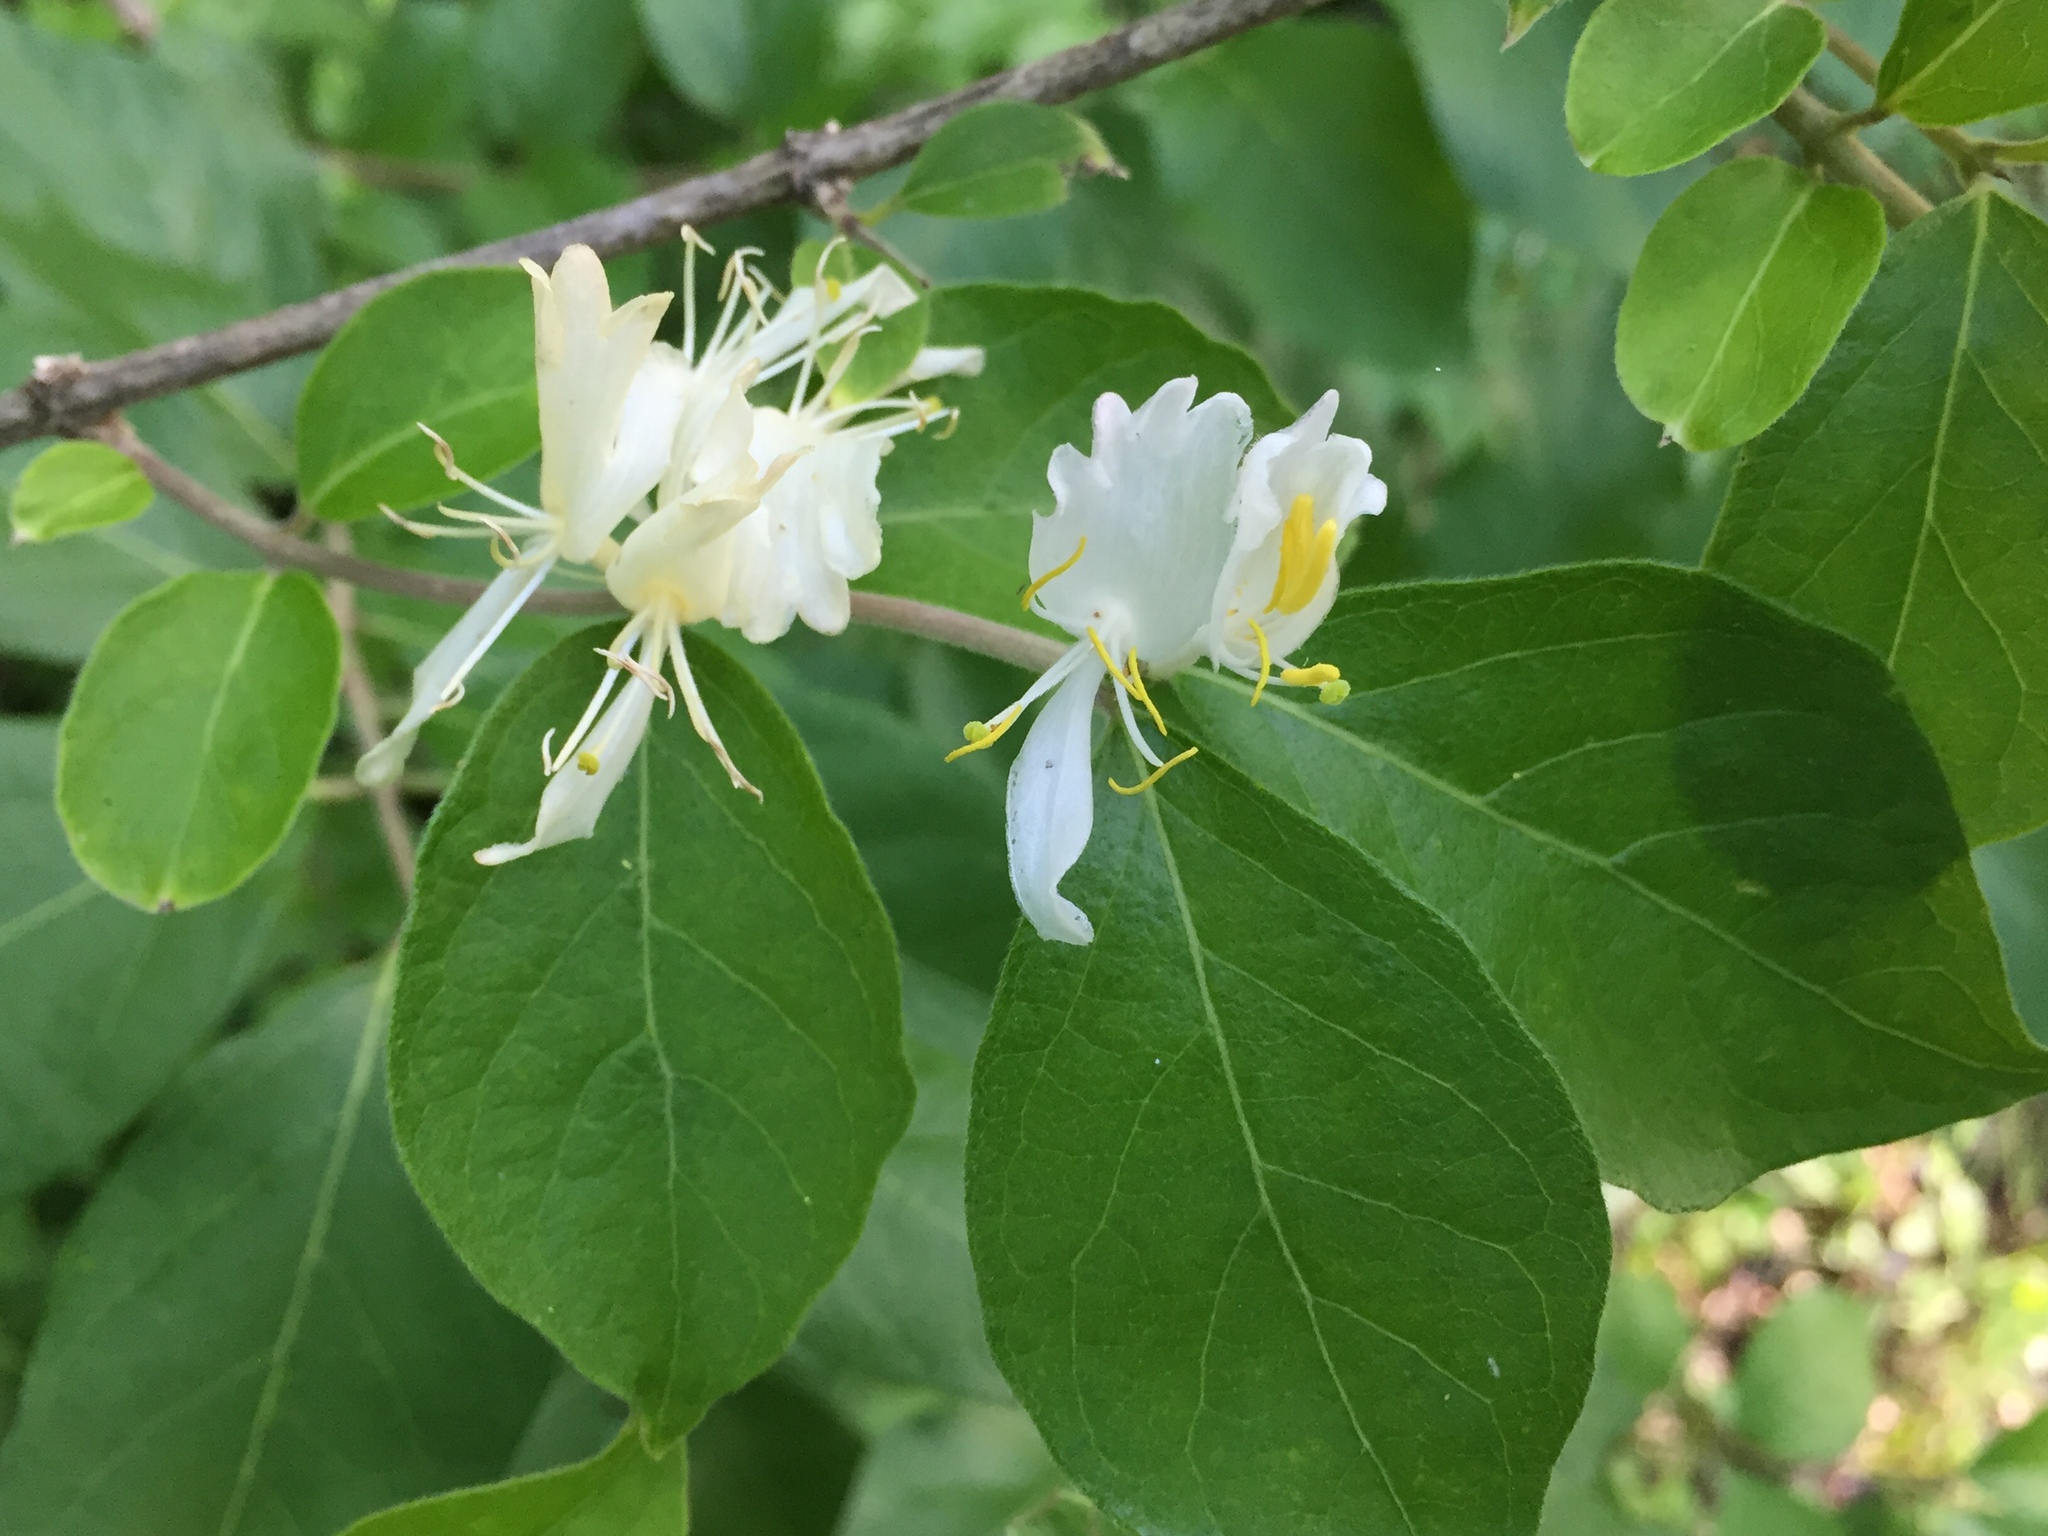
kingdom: Plantae
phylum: Tracheophyta
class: Magnoliopsida
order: Dipsacales
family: Caprifoliaceae
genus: Lonicera
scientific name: Lonicera maackii
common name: Amur honeysuckle
